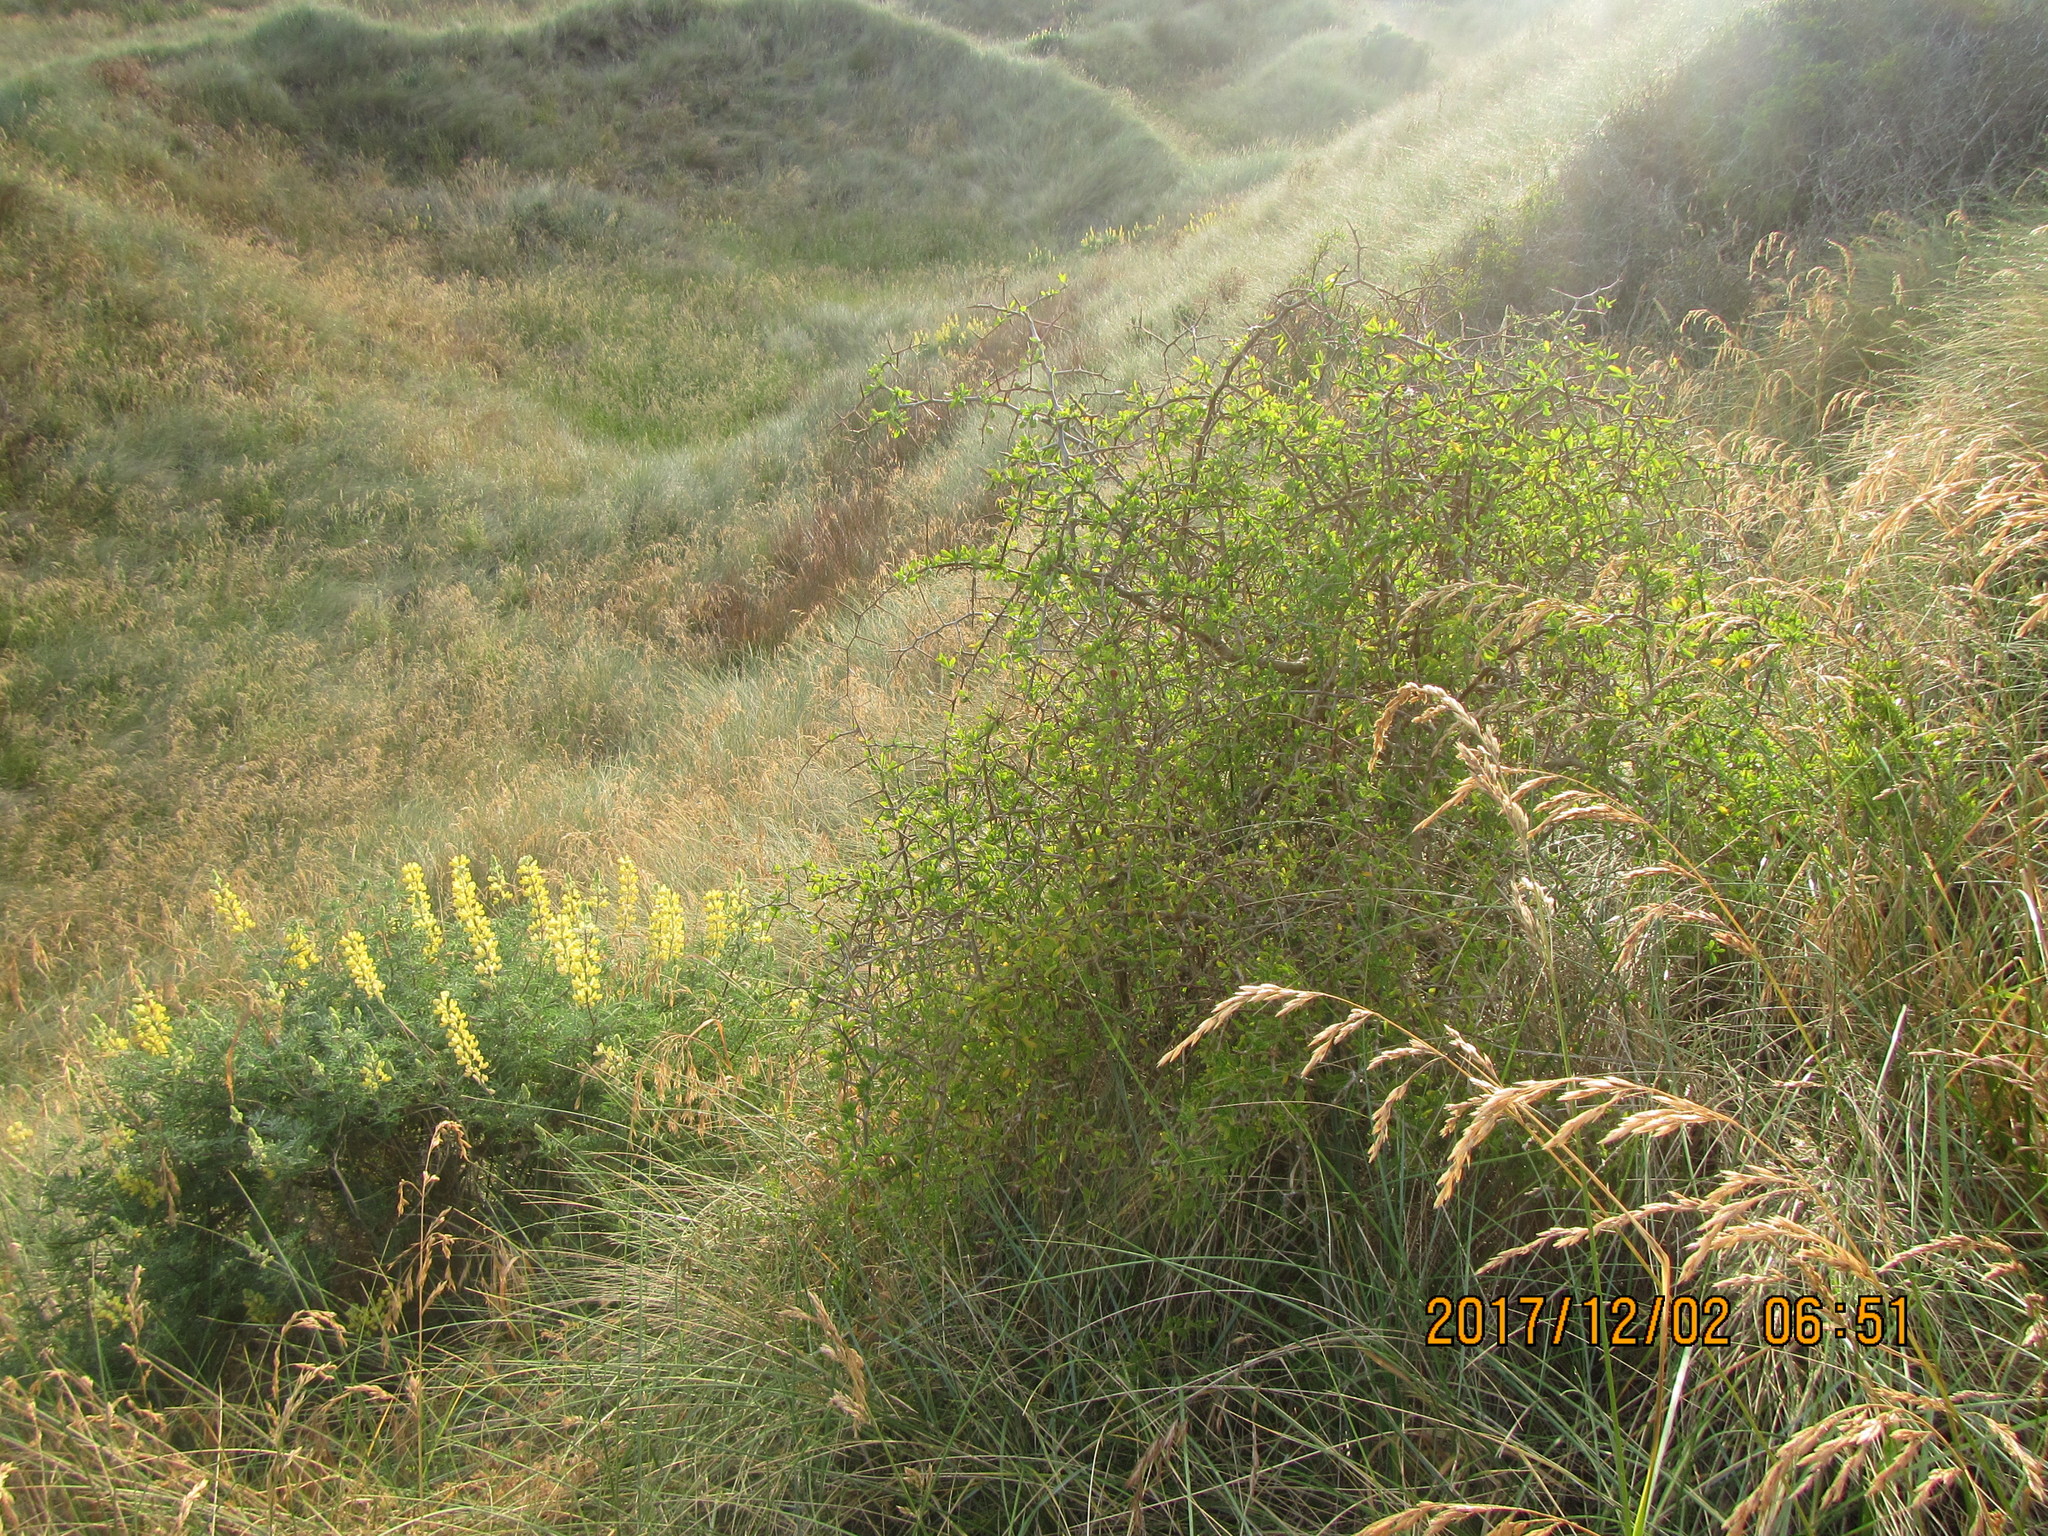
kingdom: Plantae
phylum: Tracheophyta
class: Magnoliopsida
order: Solanales
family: Solanaceae
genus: Lycium
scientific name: Lycium ferocissimum
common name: African boxthorn
